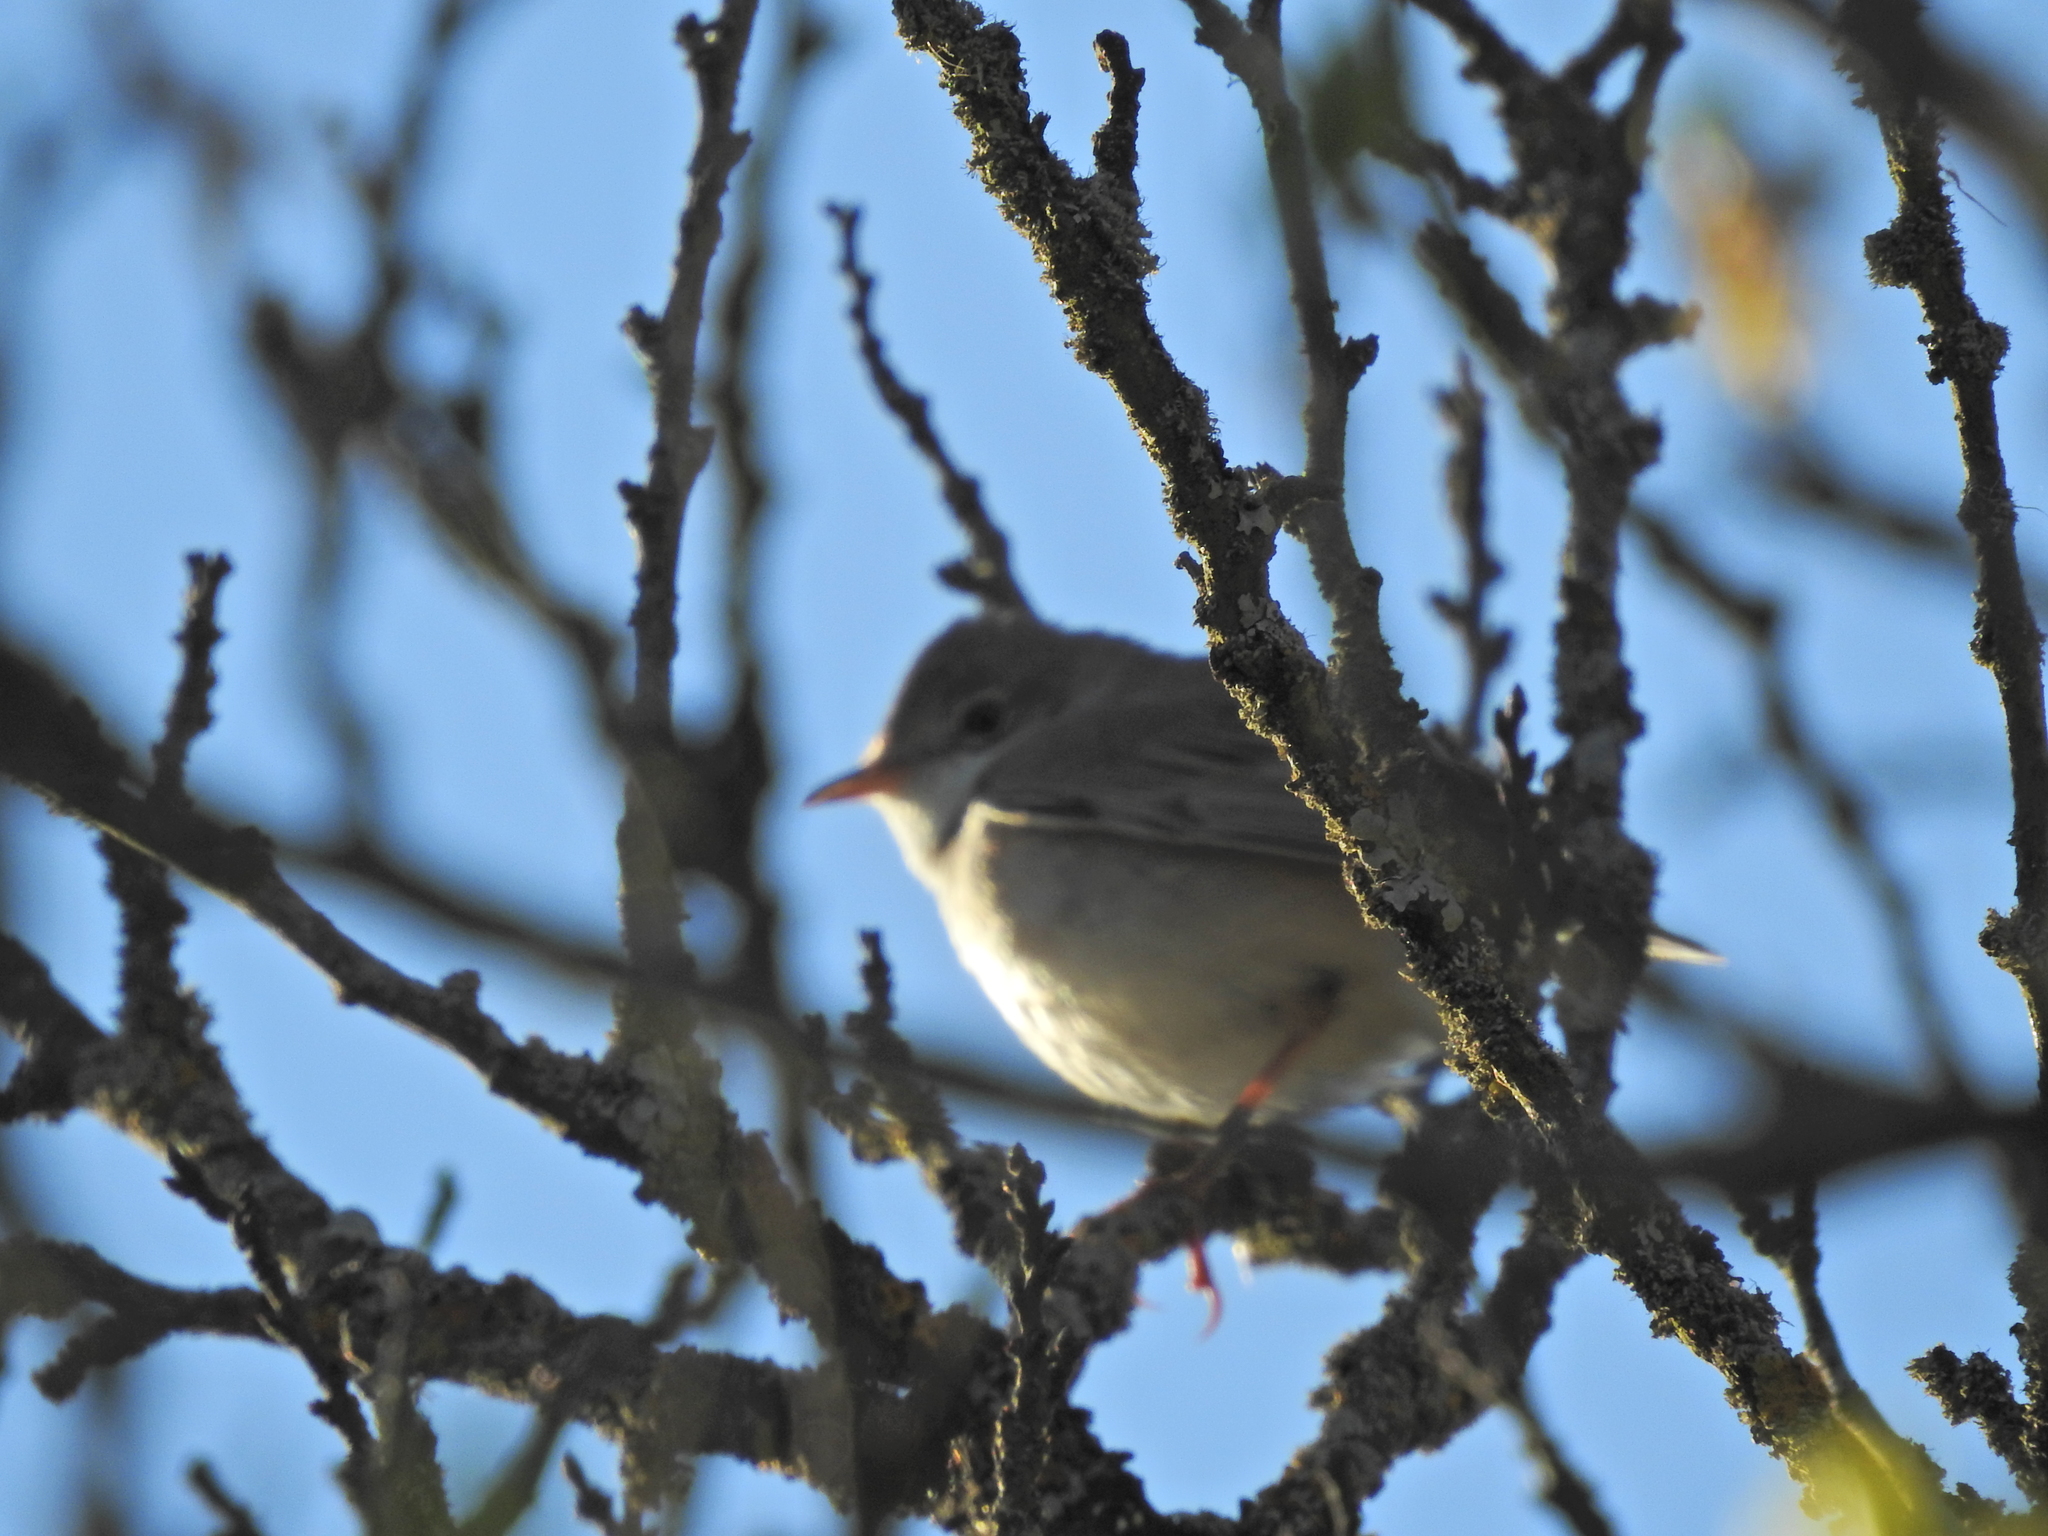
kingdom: Animalia
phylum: Chordata
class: Aves
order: Passeriformes
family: Sylviidae
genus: Sylvia
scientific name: Sylvia communis
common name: Common whitethroat
